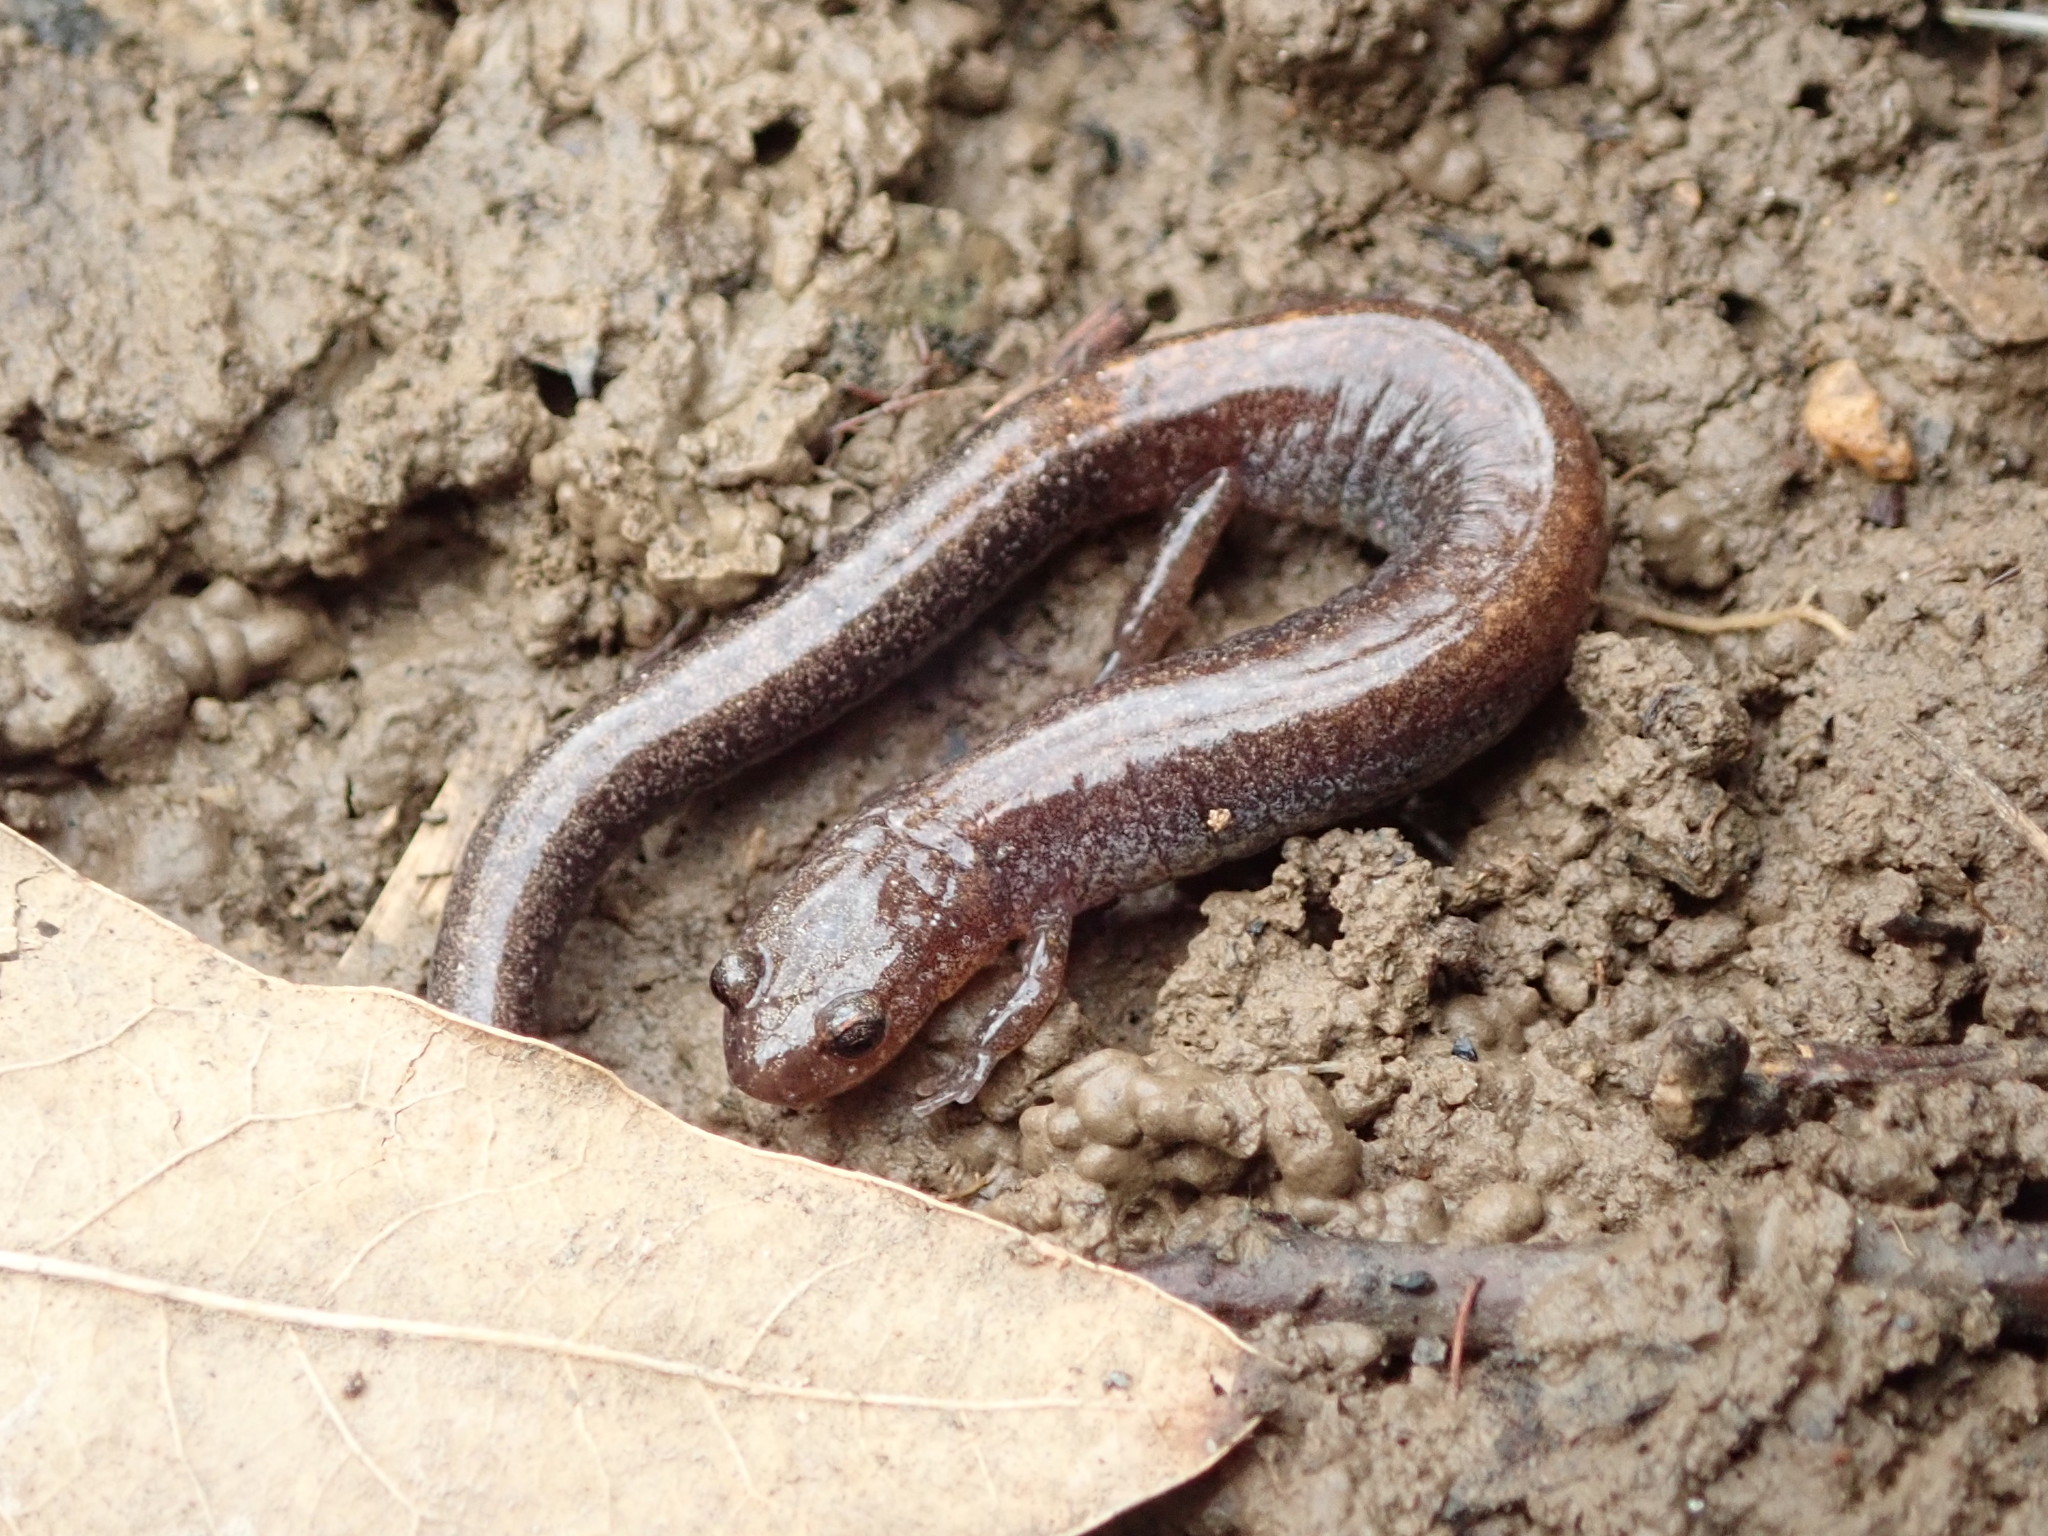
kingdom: Animalia
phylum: Chordata
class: Amphibia
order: Caudata
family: Plethodontidae
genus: Plethodon
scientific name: Plethodon cinereus
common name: Redback salamander
